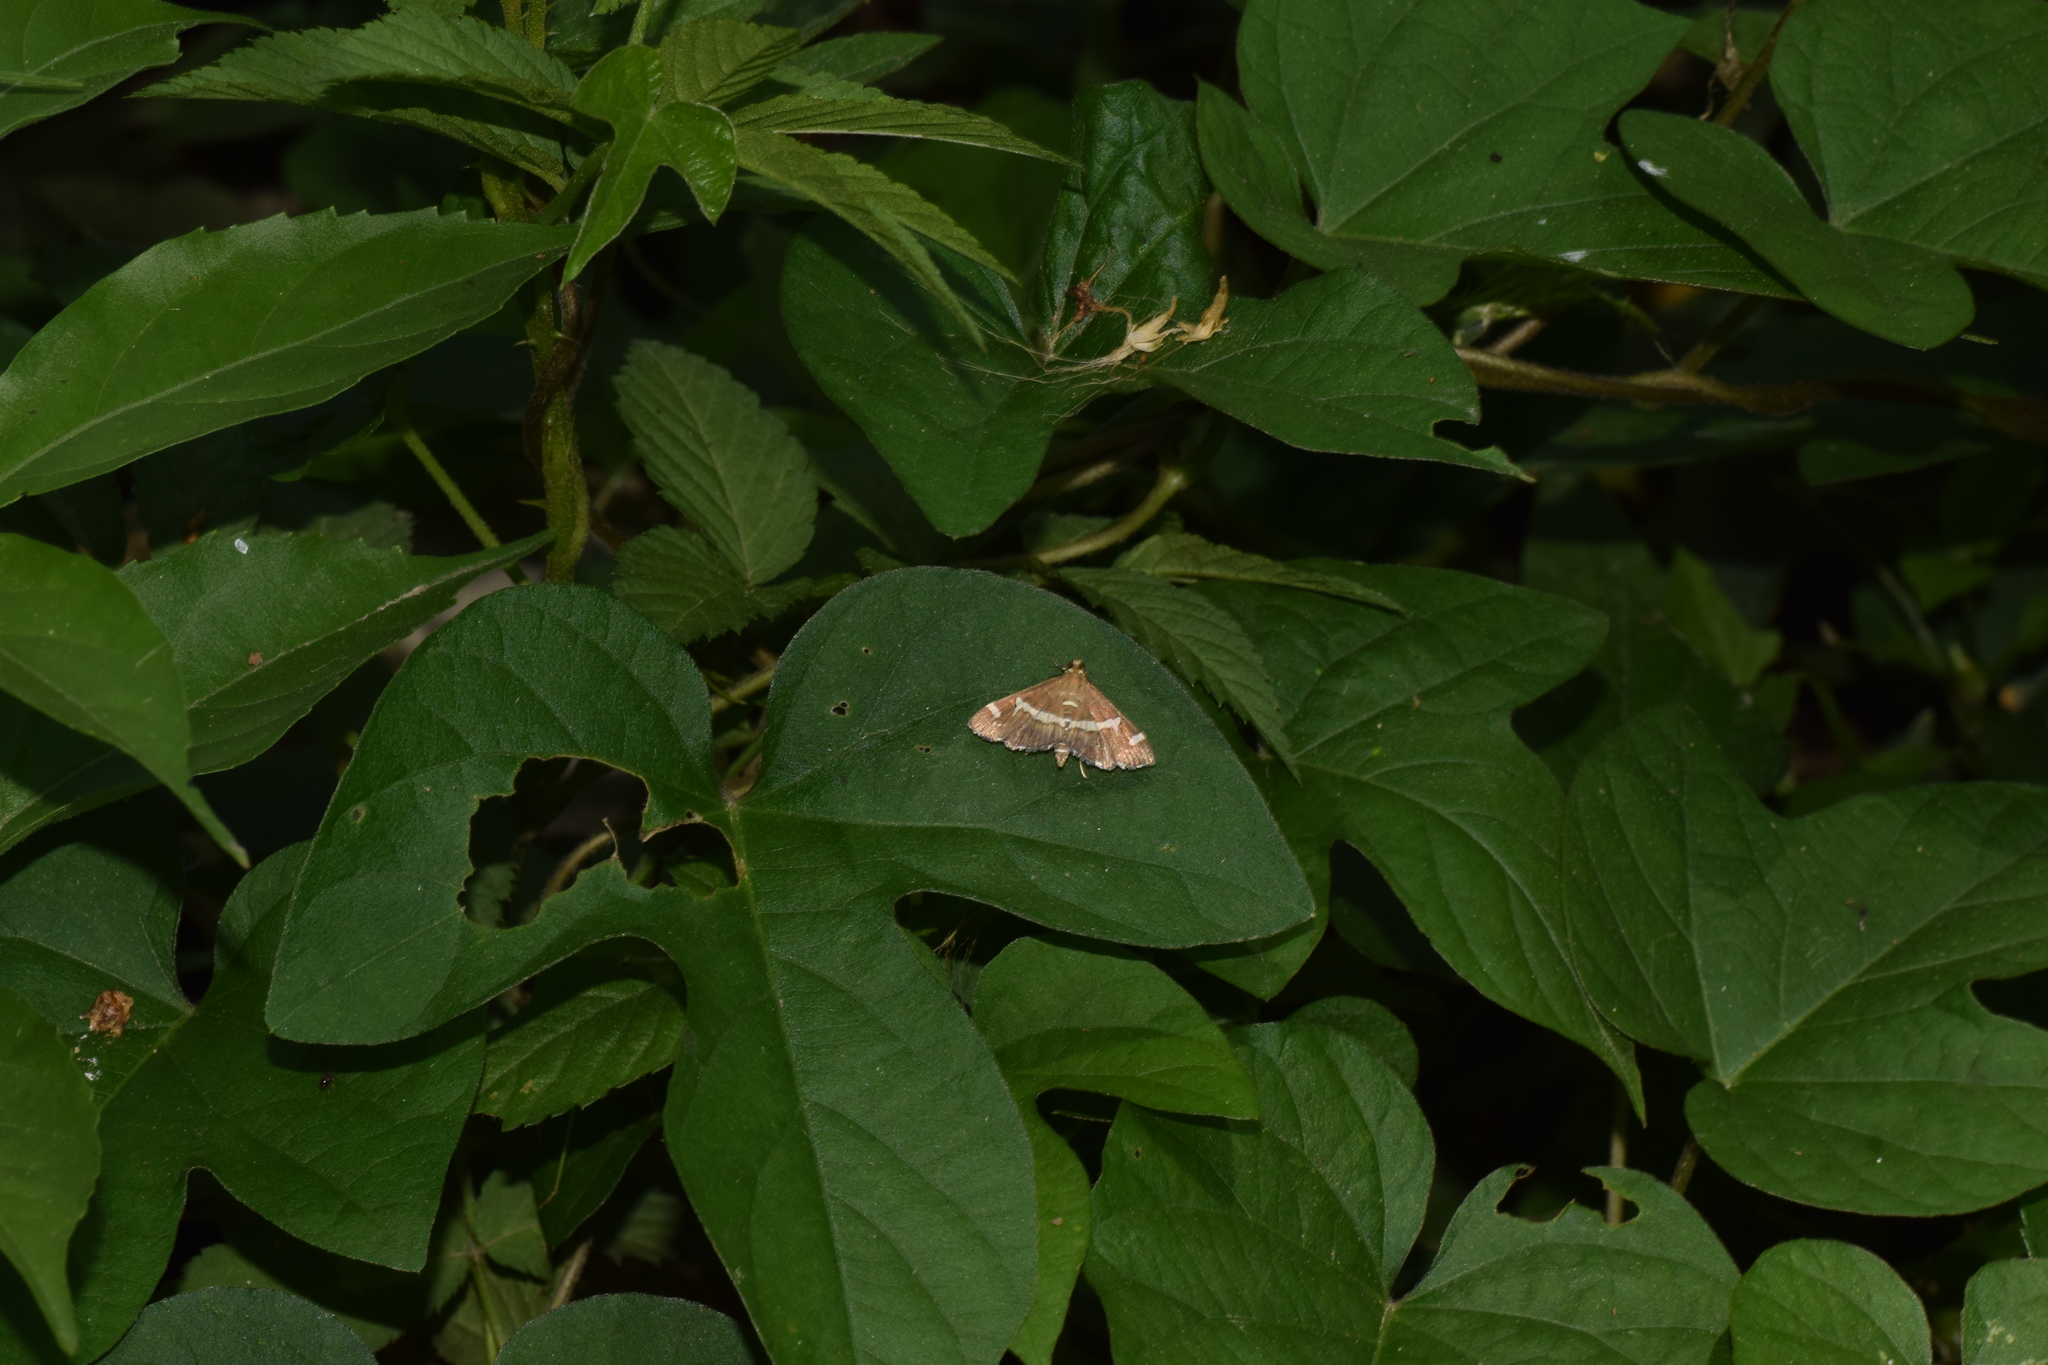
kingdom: Animalia
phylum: Arthropoda
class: Insecta
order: Lepidoptera
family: Crambidae
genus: Spoladea
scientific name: Spoladea recurvalis
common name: Beet webworm moth
